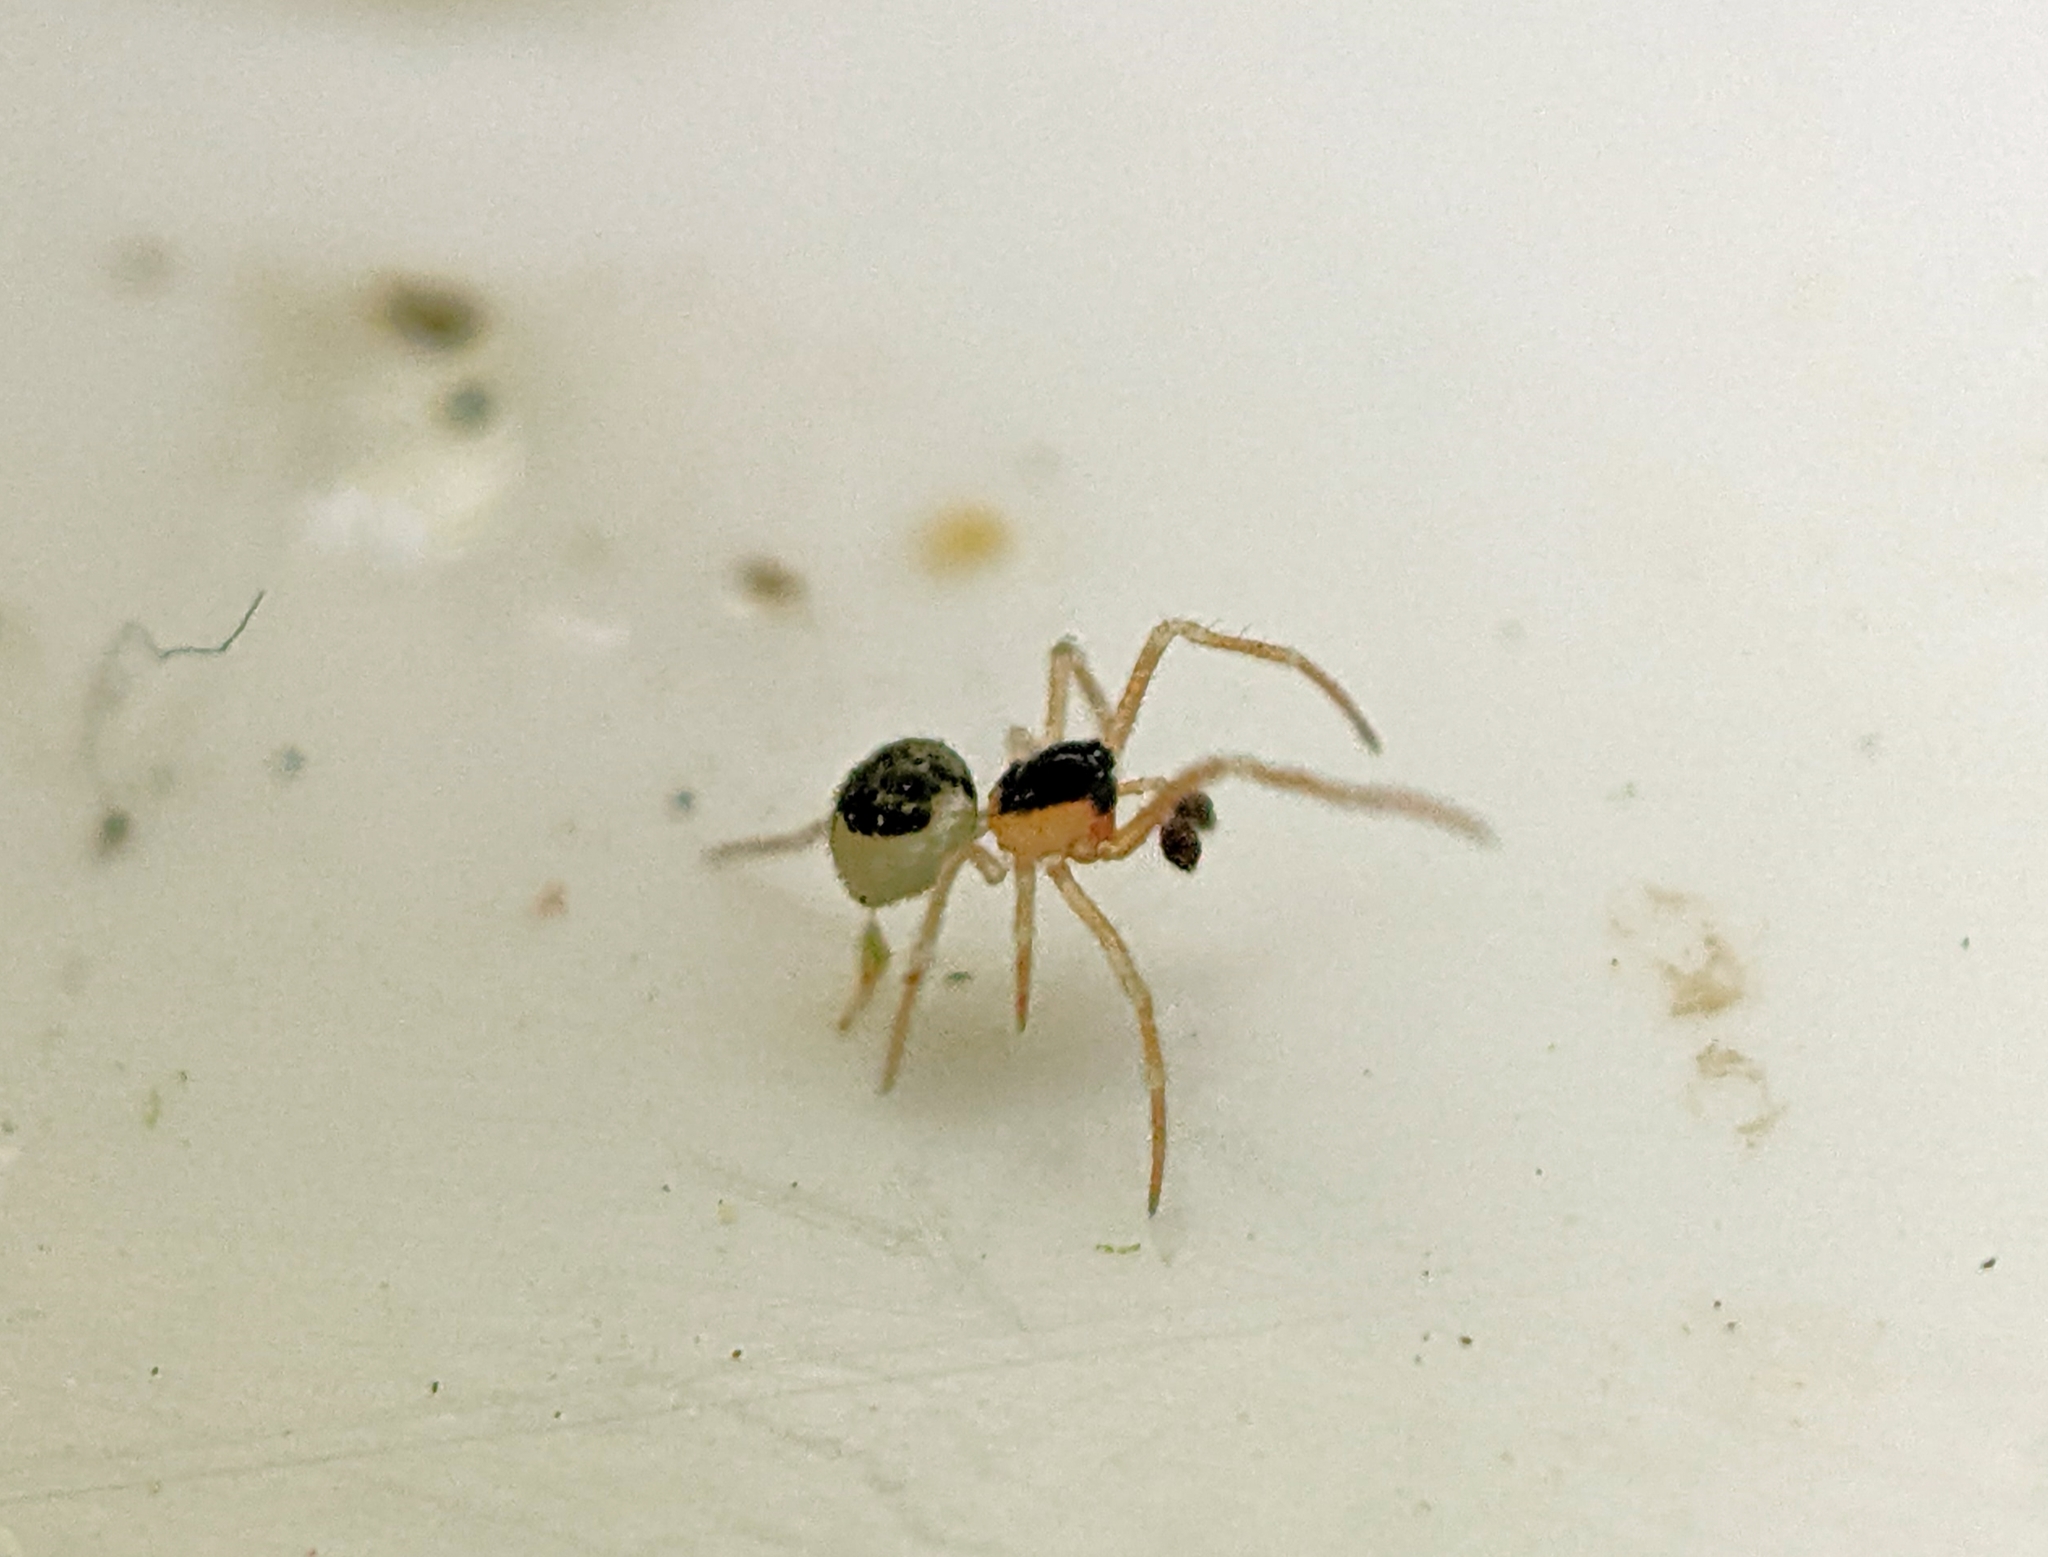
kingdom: Animalia
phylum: Arthropoda
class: Arachnida
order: Araneae
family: Theridiidae
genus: Paidiscura
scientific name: Paidiscura pallens
